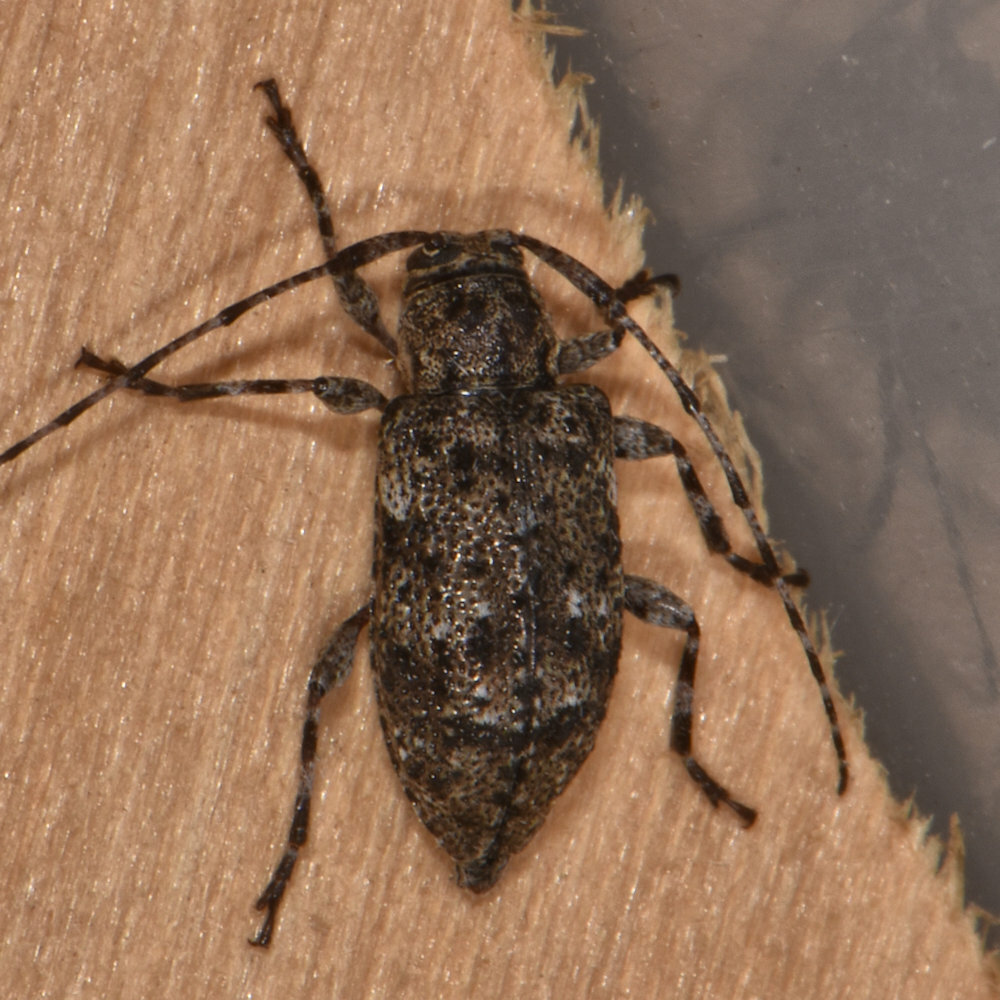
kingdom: Animalia
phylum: Arthropoda
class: Insecta
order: Coleoptera
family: Cerambycidae
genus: Astylopsis
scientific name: Astylopsis sexguttata
